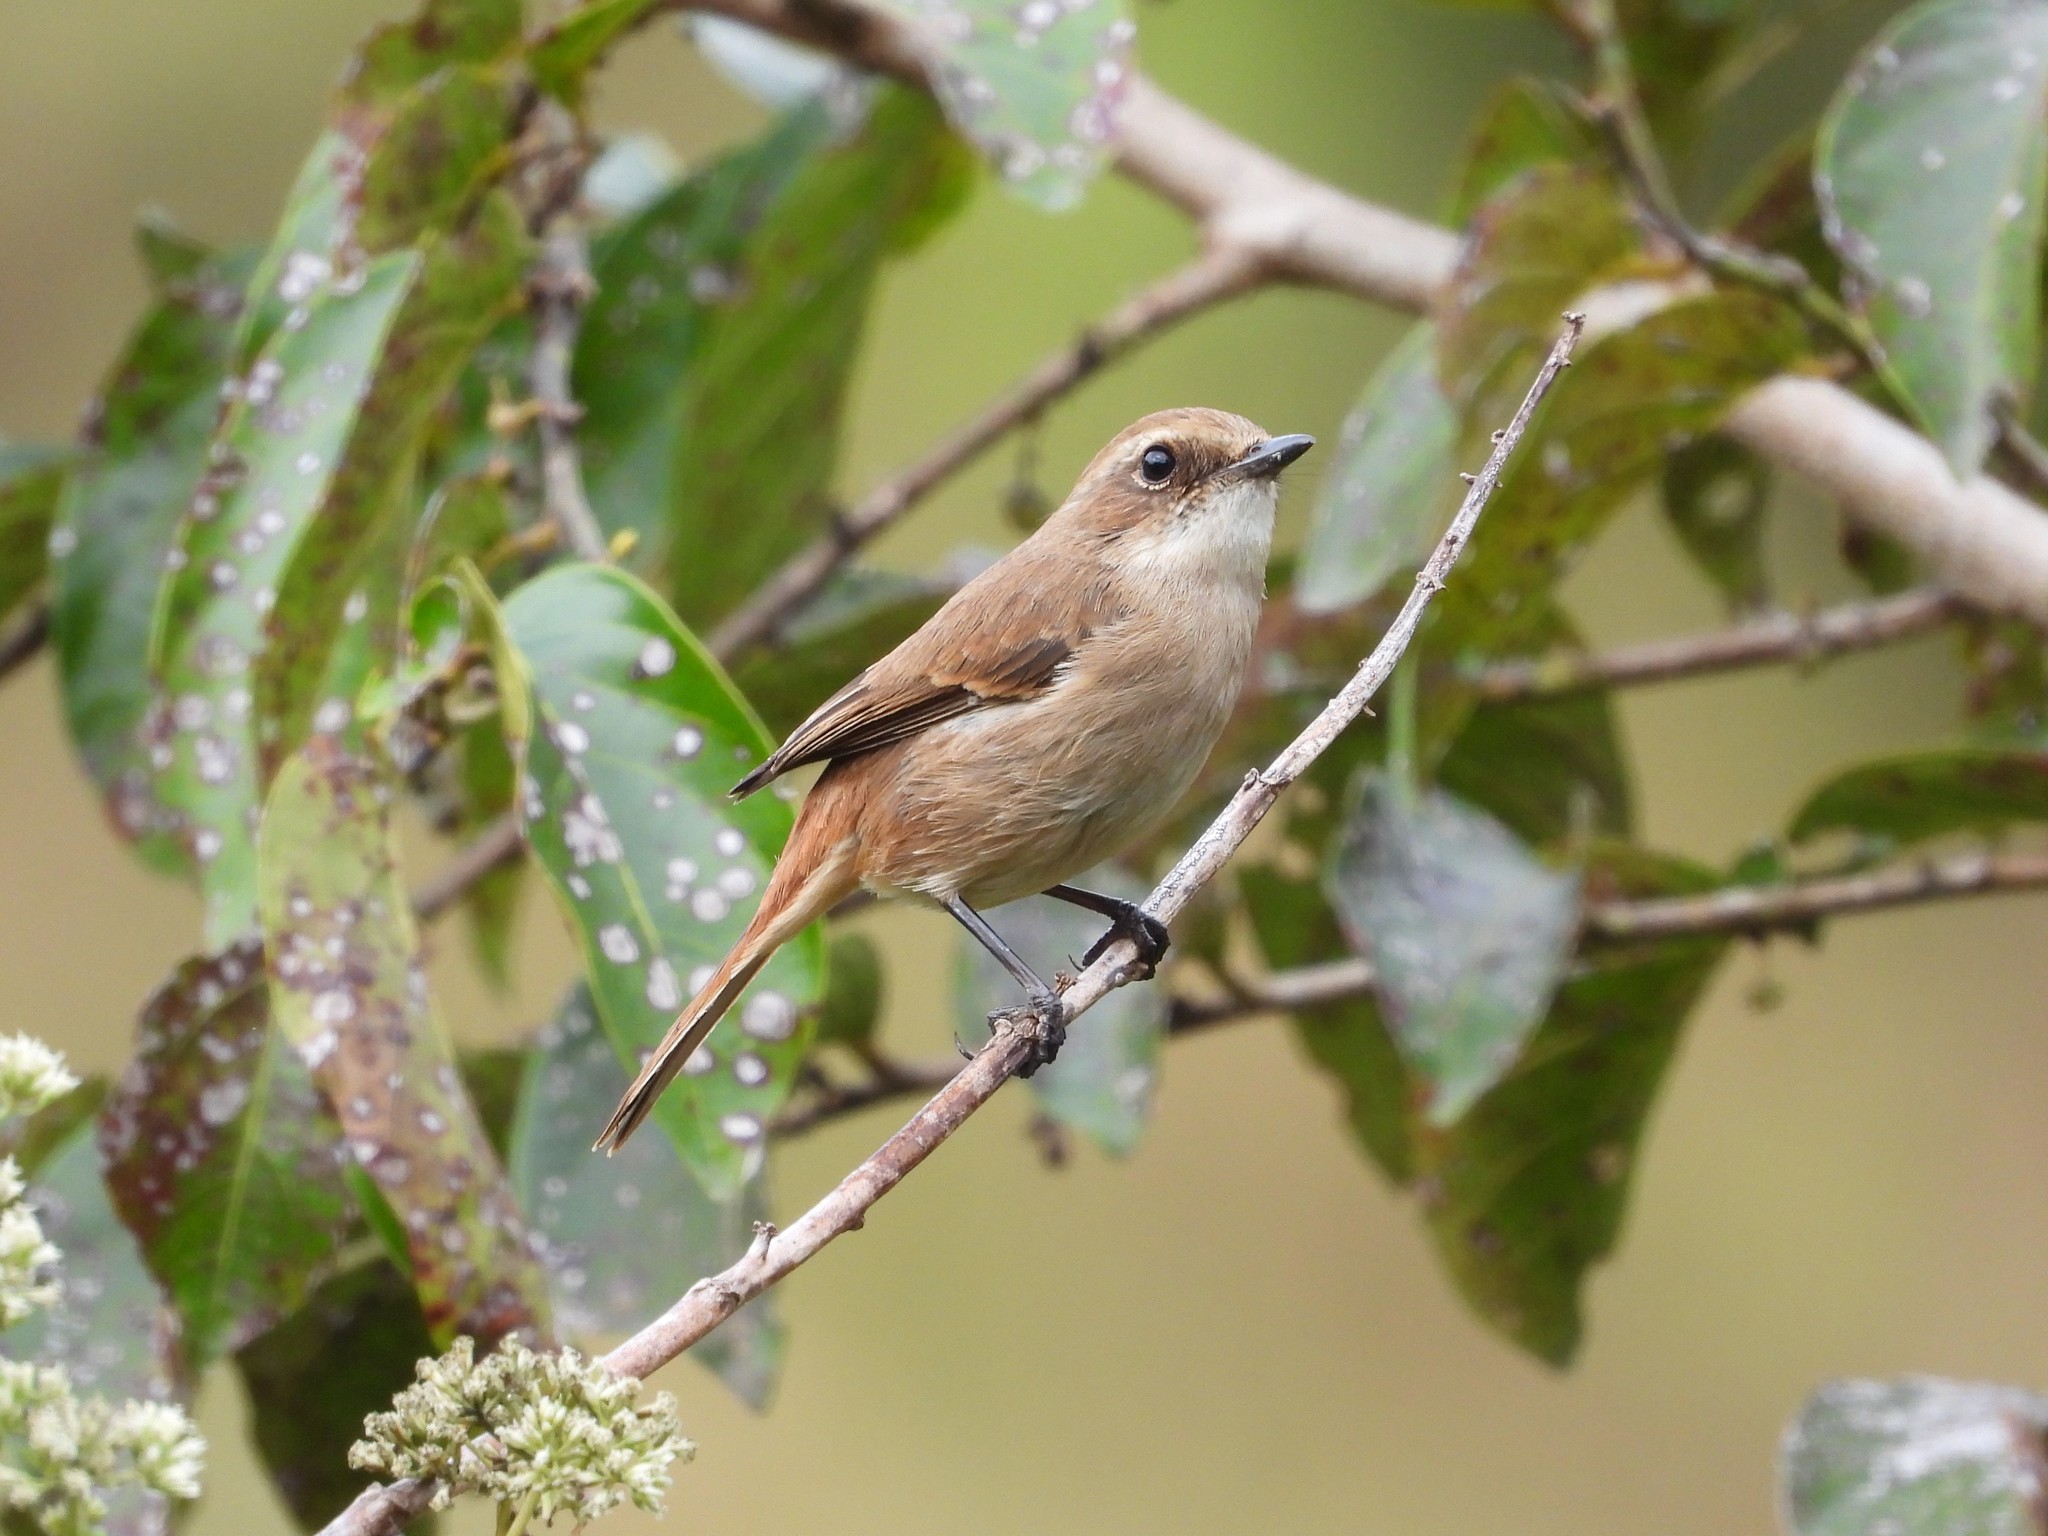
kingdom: Animalia
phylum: Chordata
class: Aves
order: Passeriformes
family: Muscicapidae
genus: Saxicola
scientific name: Saxicola ferreus
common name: Grey bush chat
